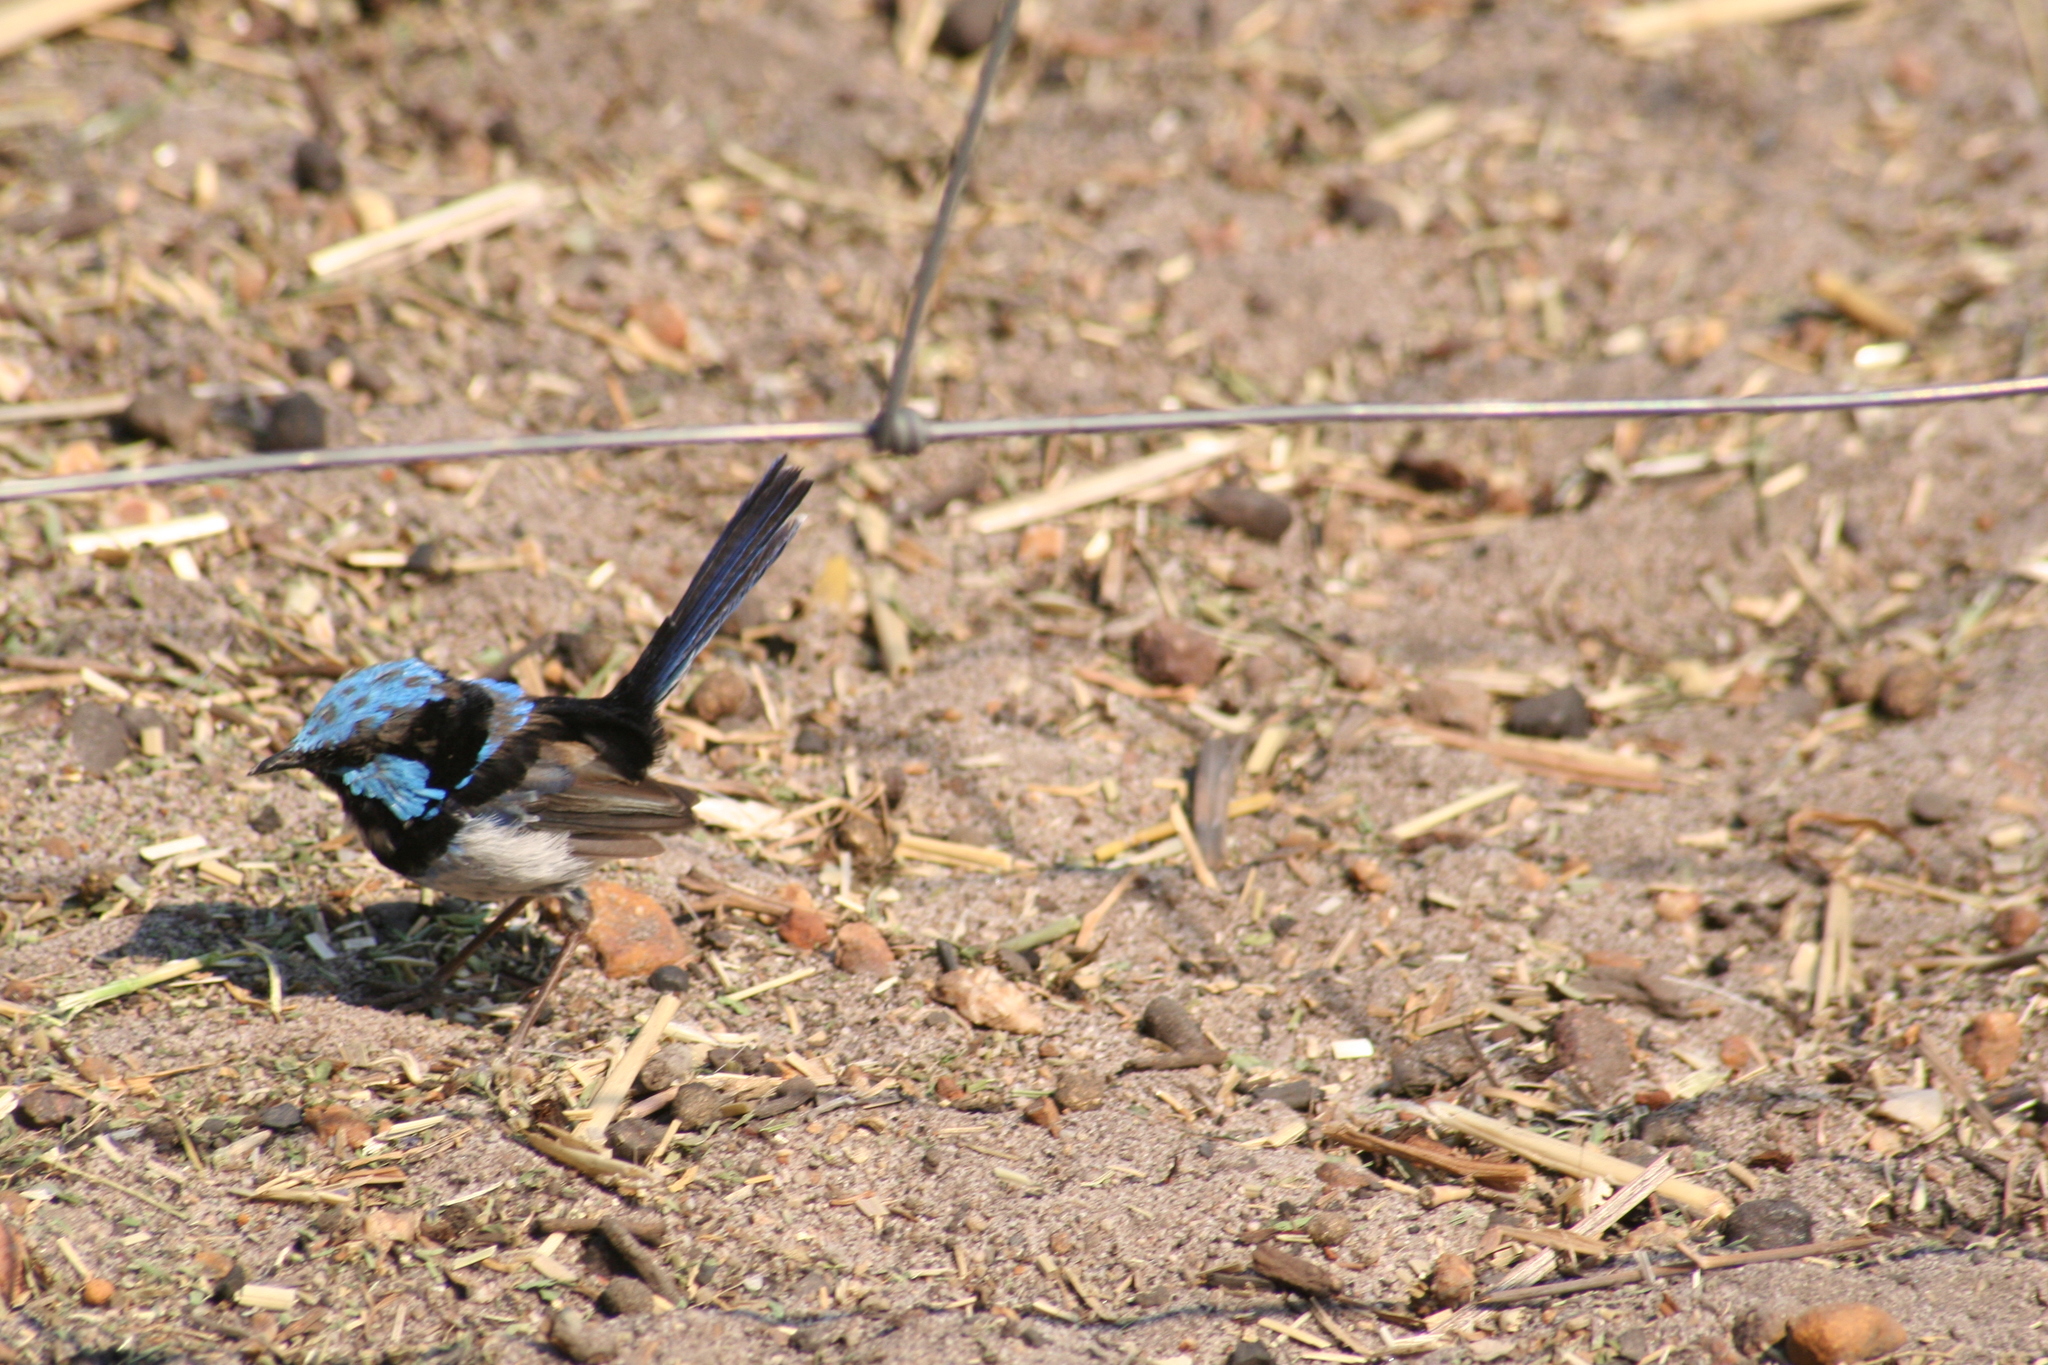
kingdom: Animalia
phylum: Chordata
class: Aves
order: Passeriformes
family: Maluridae
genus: Malurus
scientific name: Malurus cyaneus
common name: Superb fairywren
